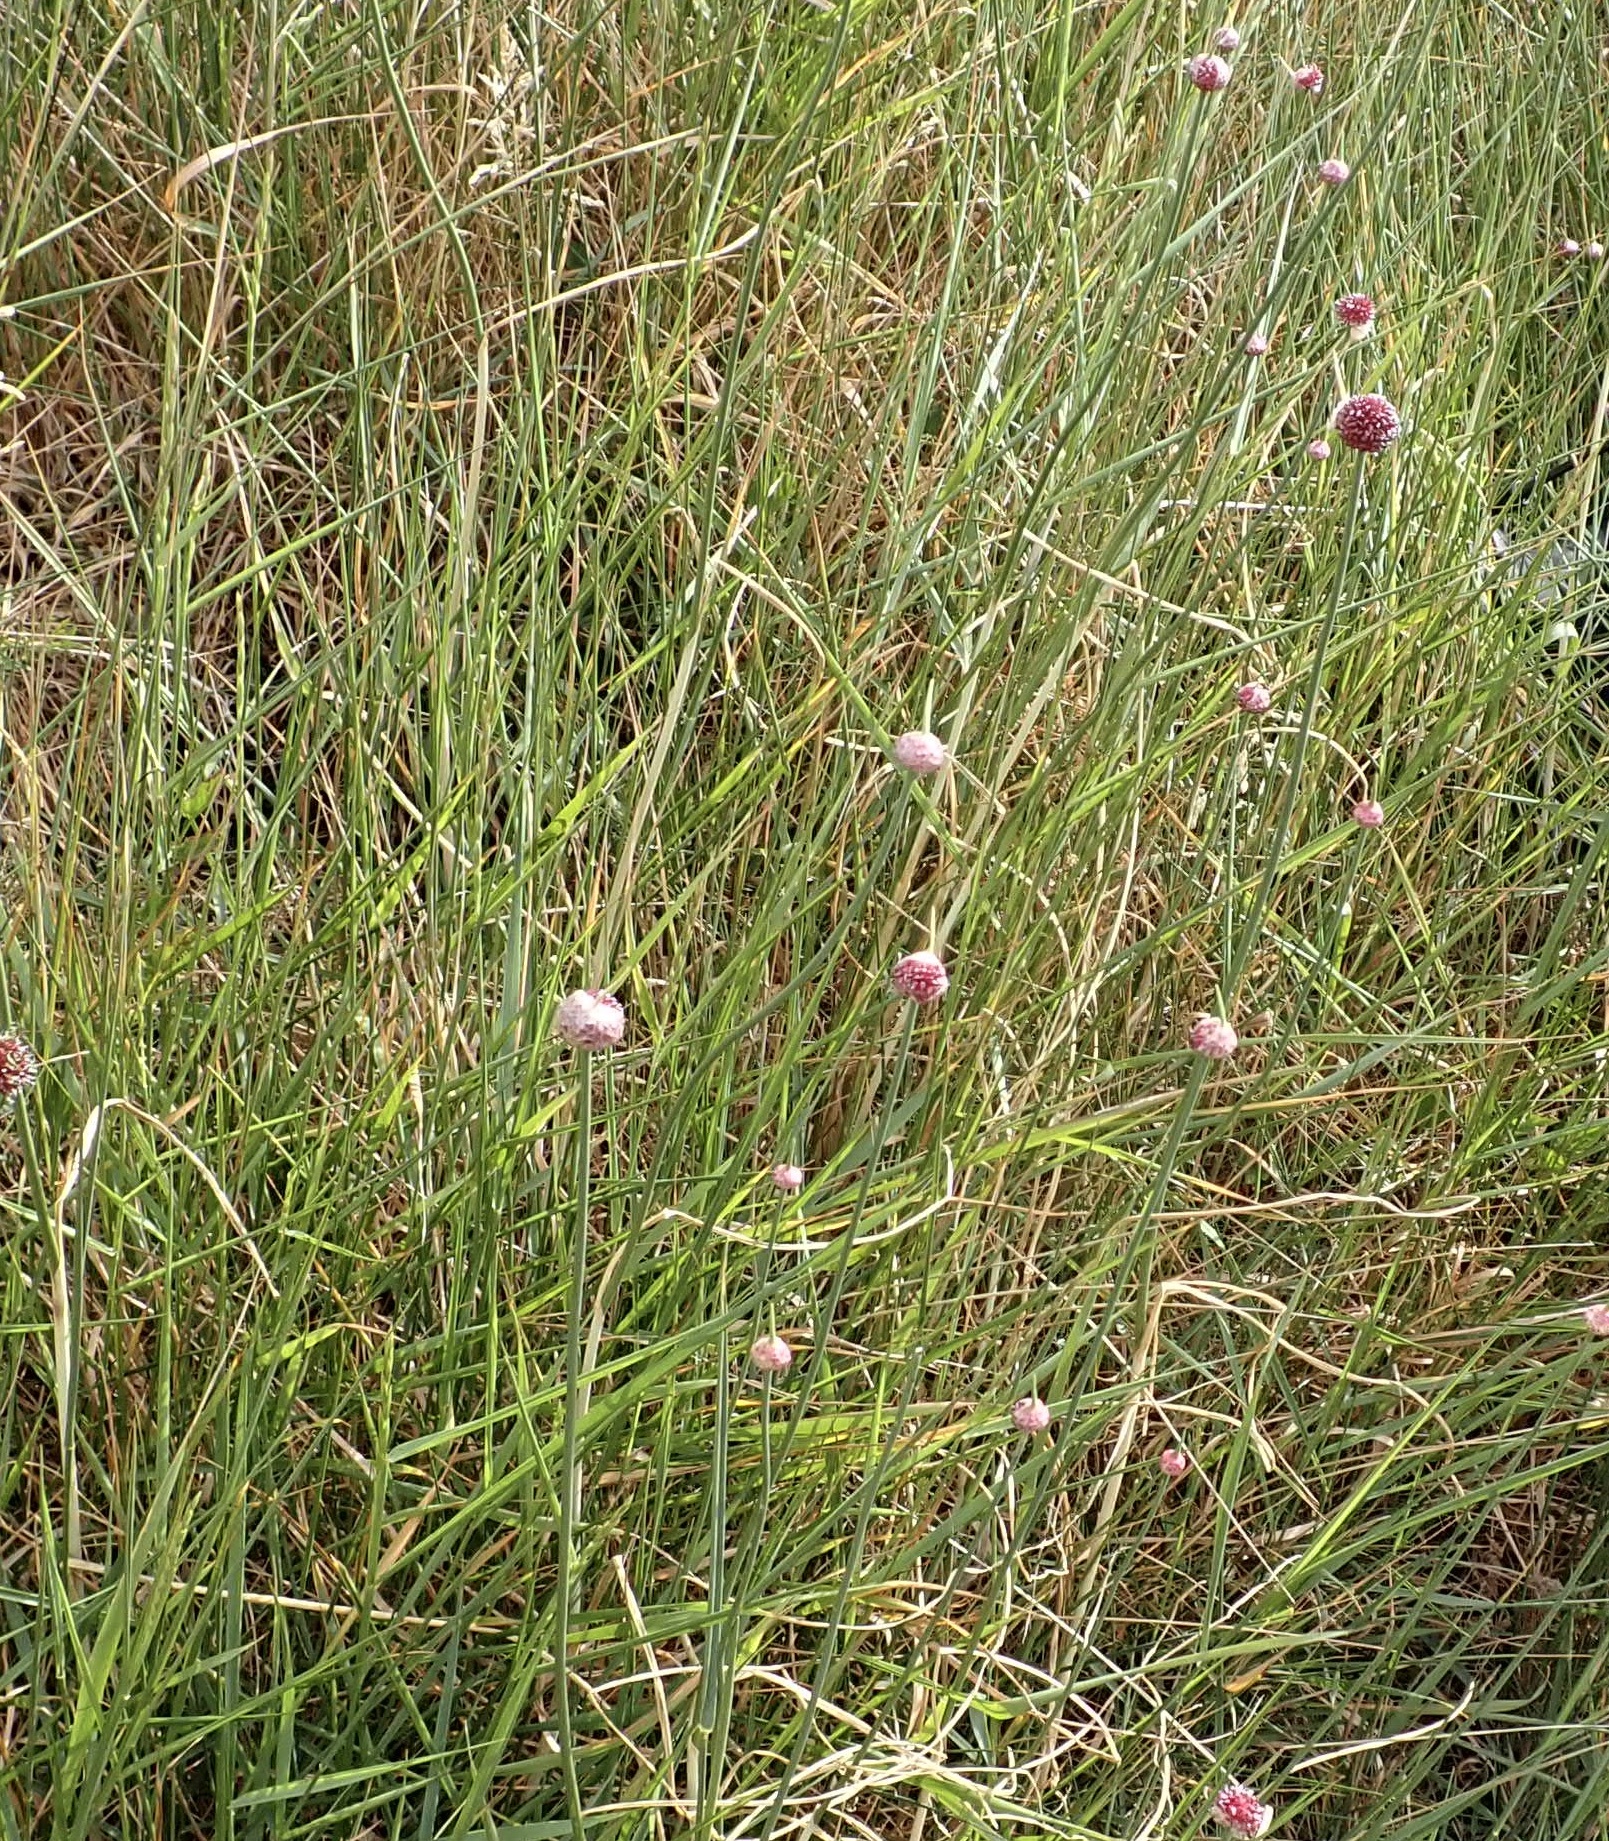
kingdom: Plantae
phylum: Tracheophyta
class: Liliopsida
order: Asparagales
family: Amaryllidaceae
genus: Allium
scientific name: Allium vineale
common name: Crow garlic
